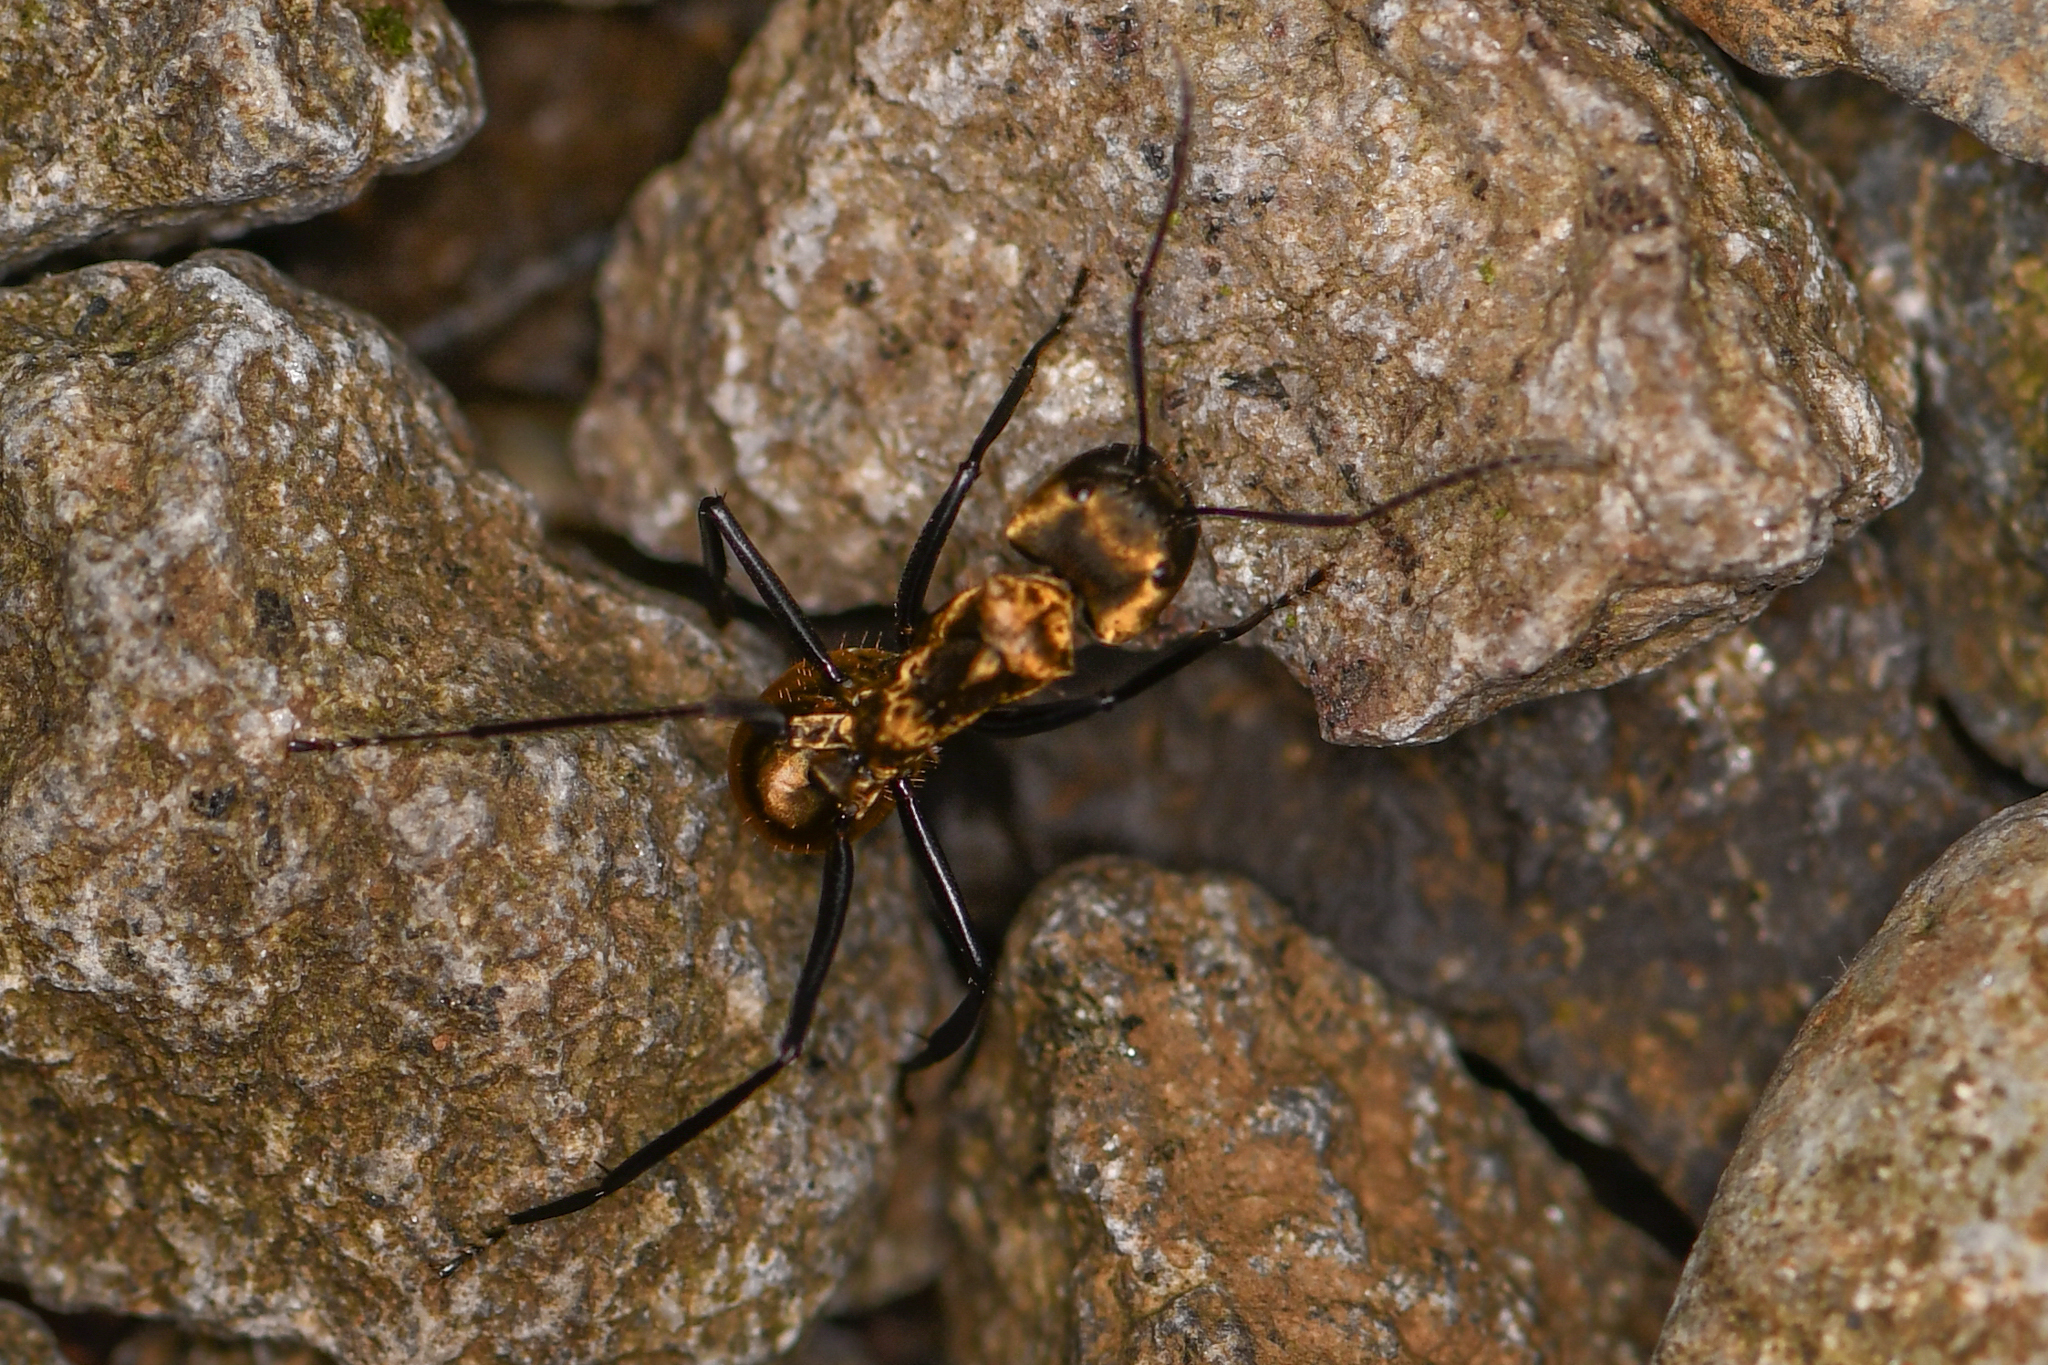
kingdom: Animalia
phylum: Arthropoda
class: Insecta
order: Hymenoptera
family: Formicidae
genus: Camponotus
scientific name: Camponotus sericeiventris
